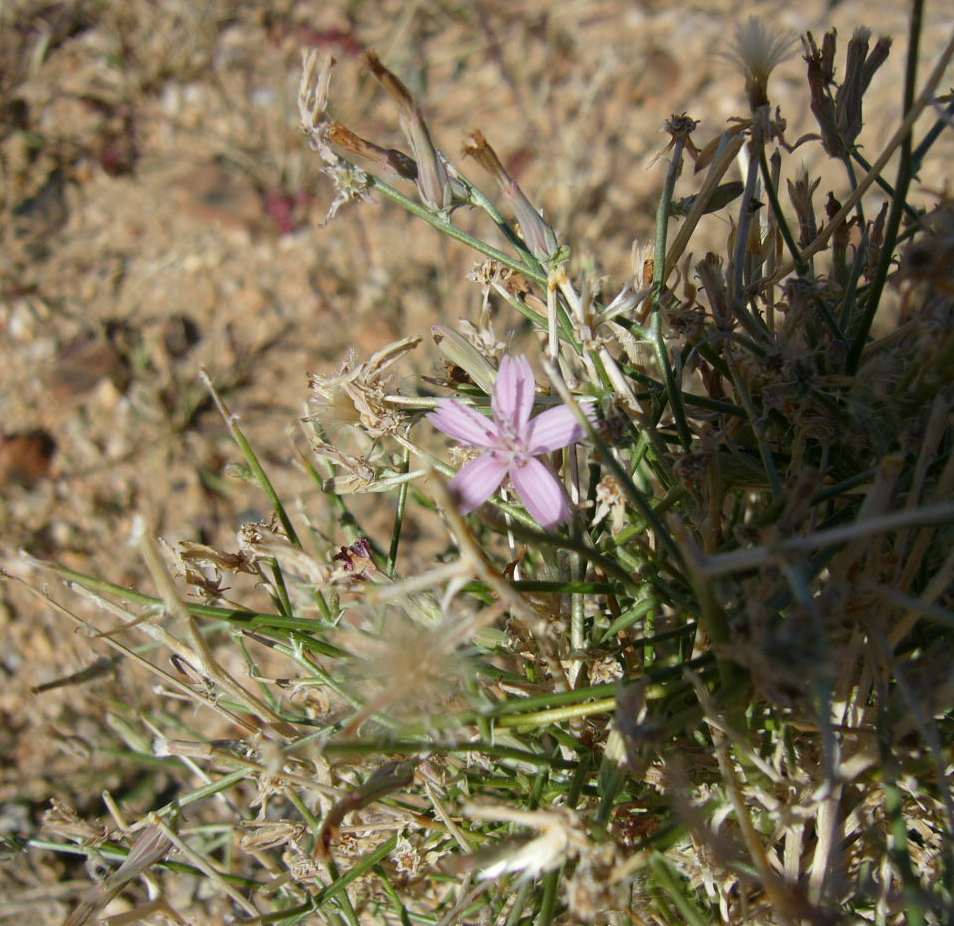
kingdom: Plantae
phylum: Tracheophyta
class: Magnoliopsida
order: Asterales
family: Asteraceae
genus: Stephanomeria
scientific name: Stephanomeria pauciflora
